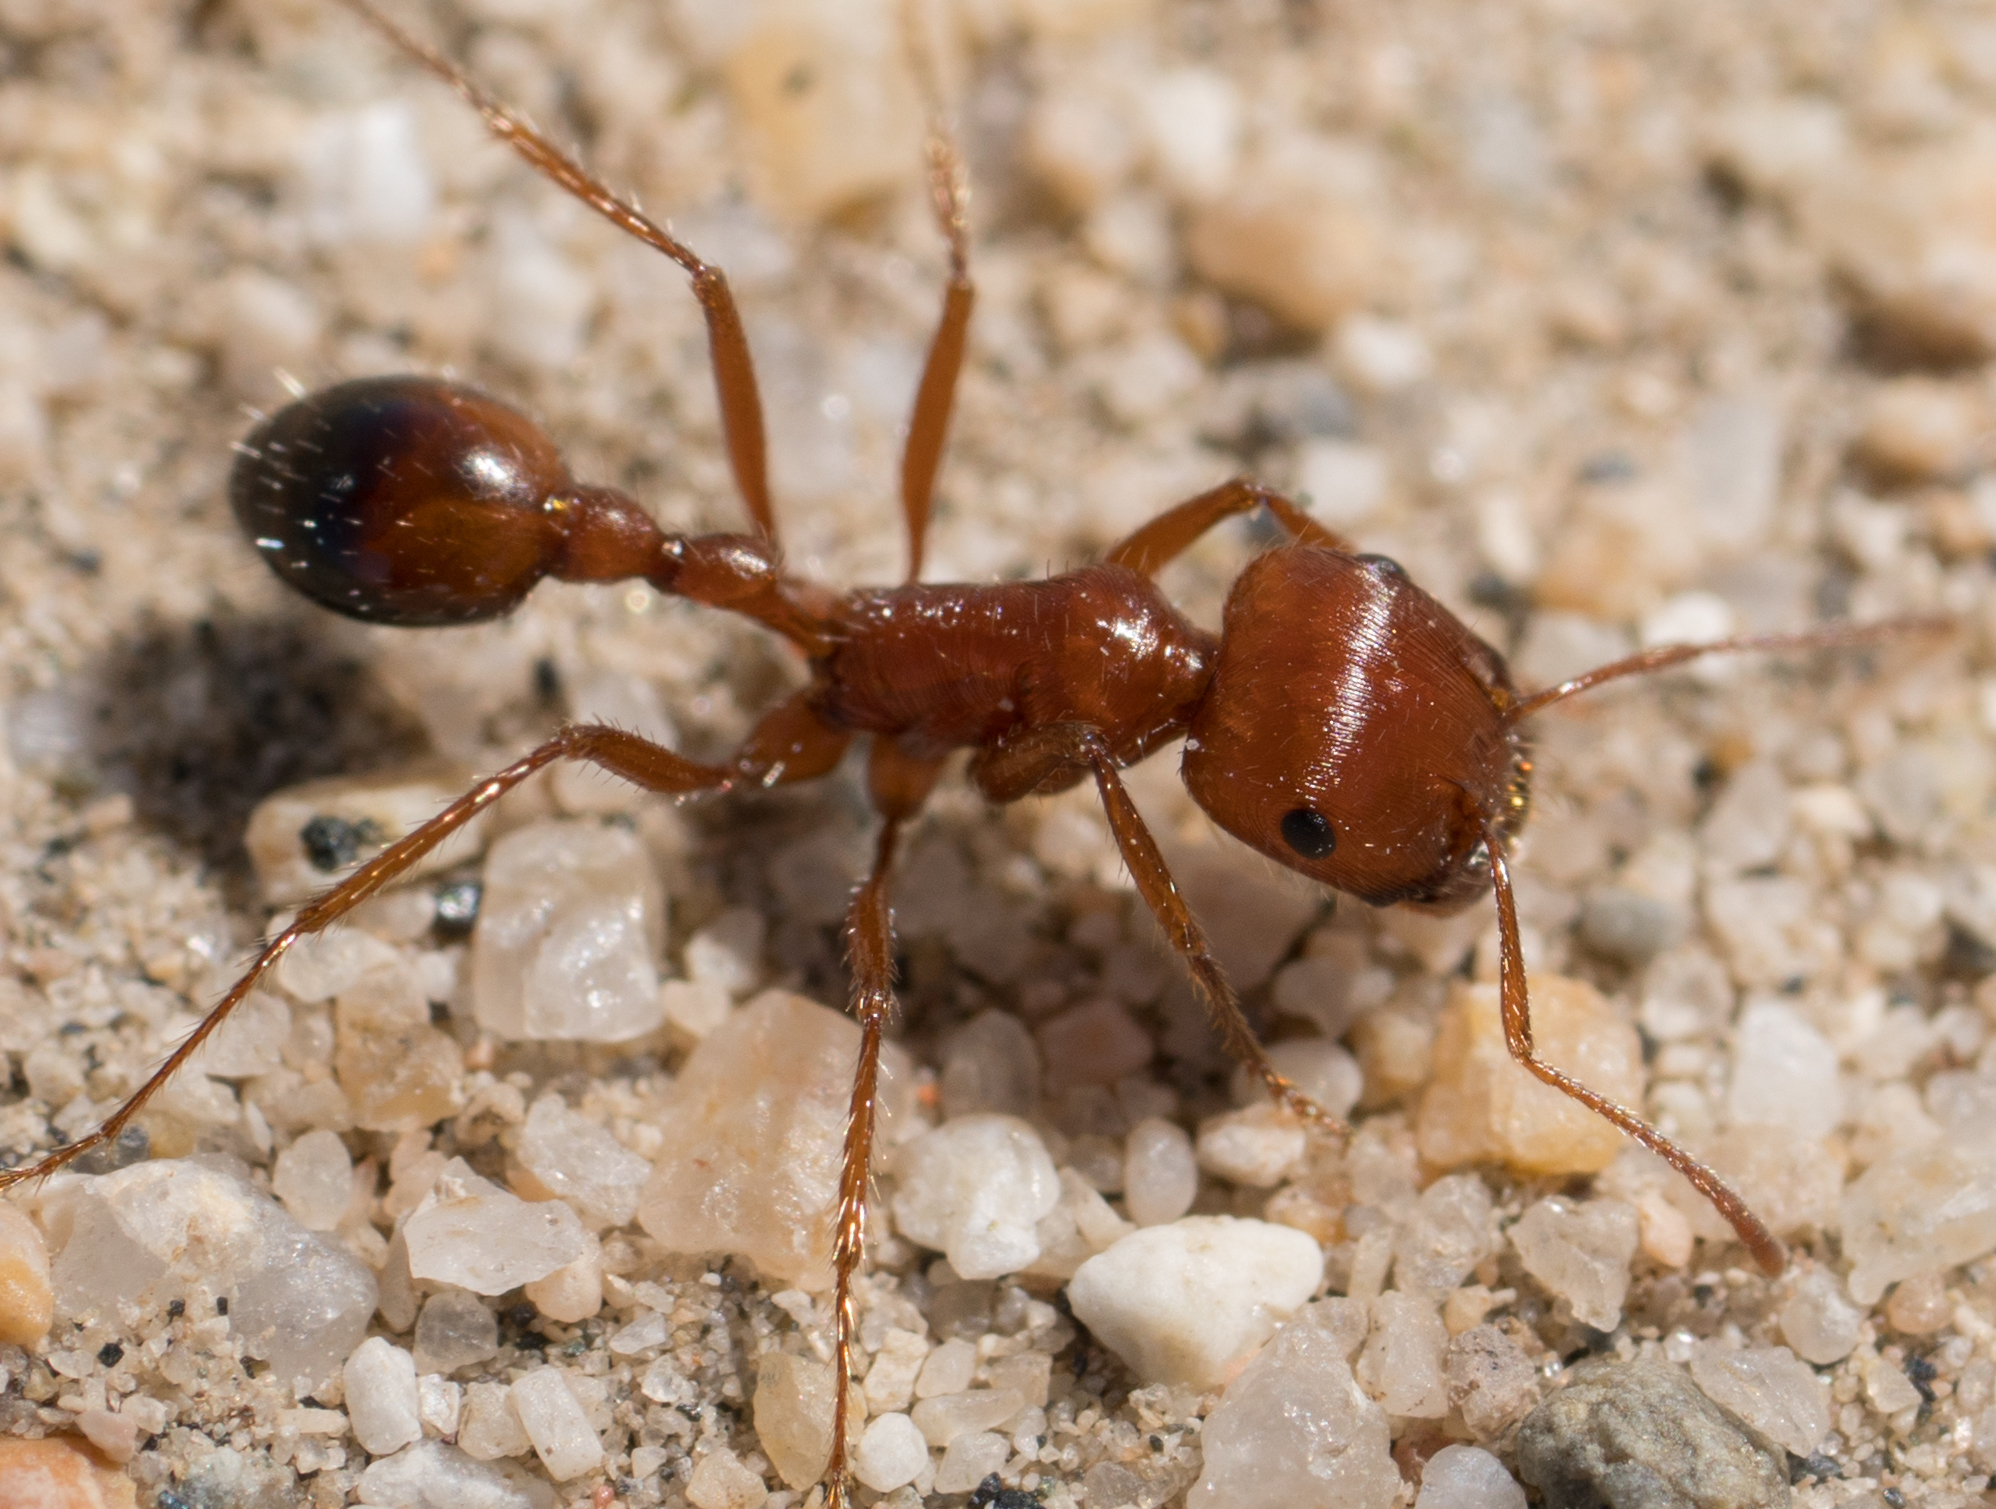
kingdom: Animalia
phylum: Arthropoda
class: Insecta
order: Hymenoptera
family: Formicidae
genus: Pogonomyrmex
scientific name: Pogonomyrmex californicus
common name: California harvester ant
